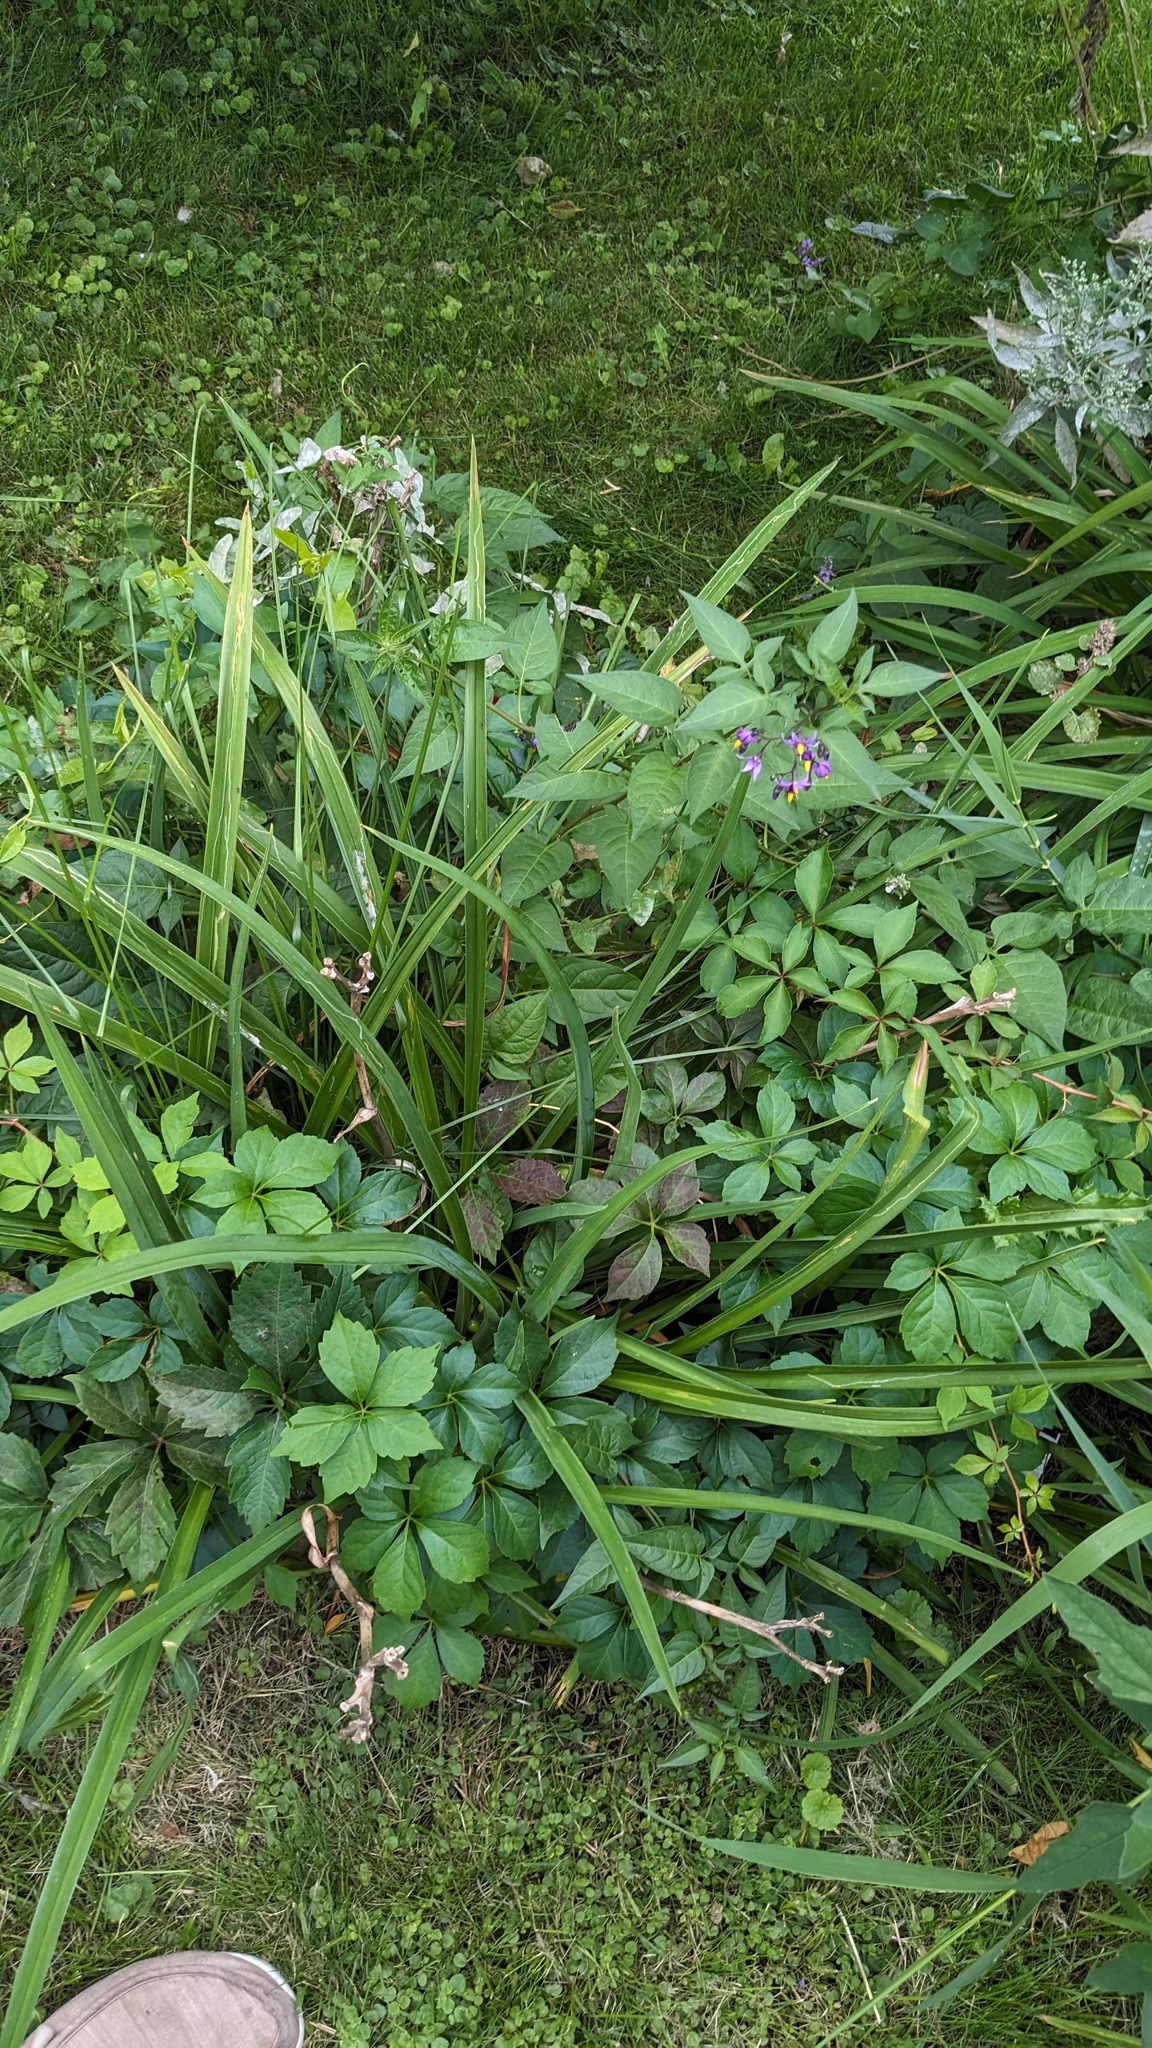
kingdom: Animalia
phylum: Arthropoda
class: Insecta
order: Diptera
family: Agromyzidae
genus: Ophiomyia
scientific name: Ophiomyia kwansonis
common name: Daylily leafminer
